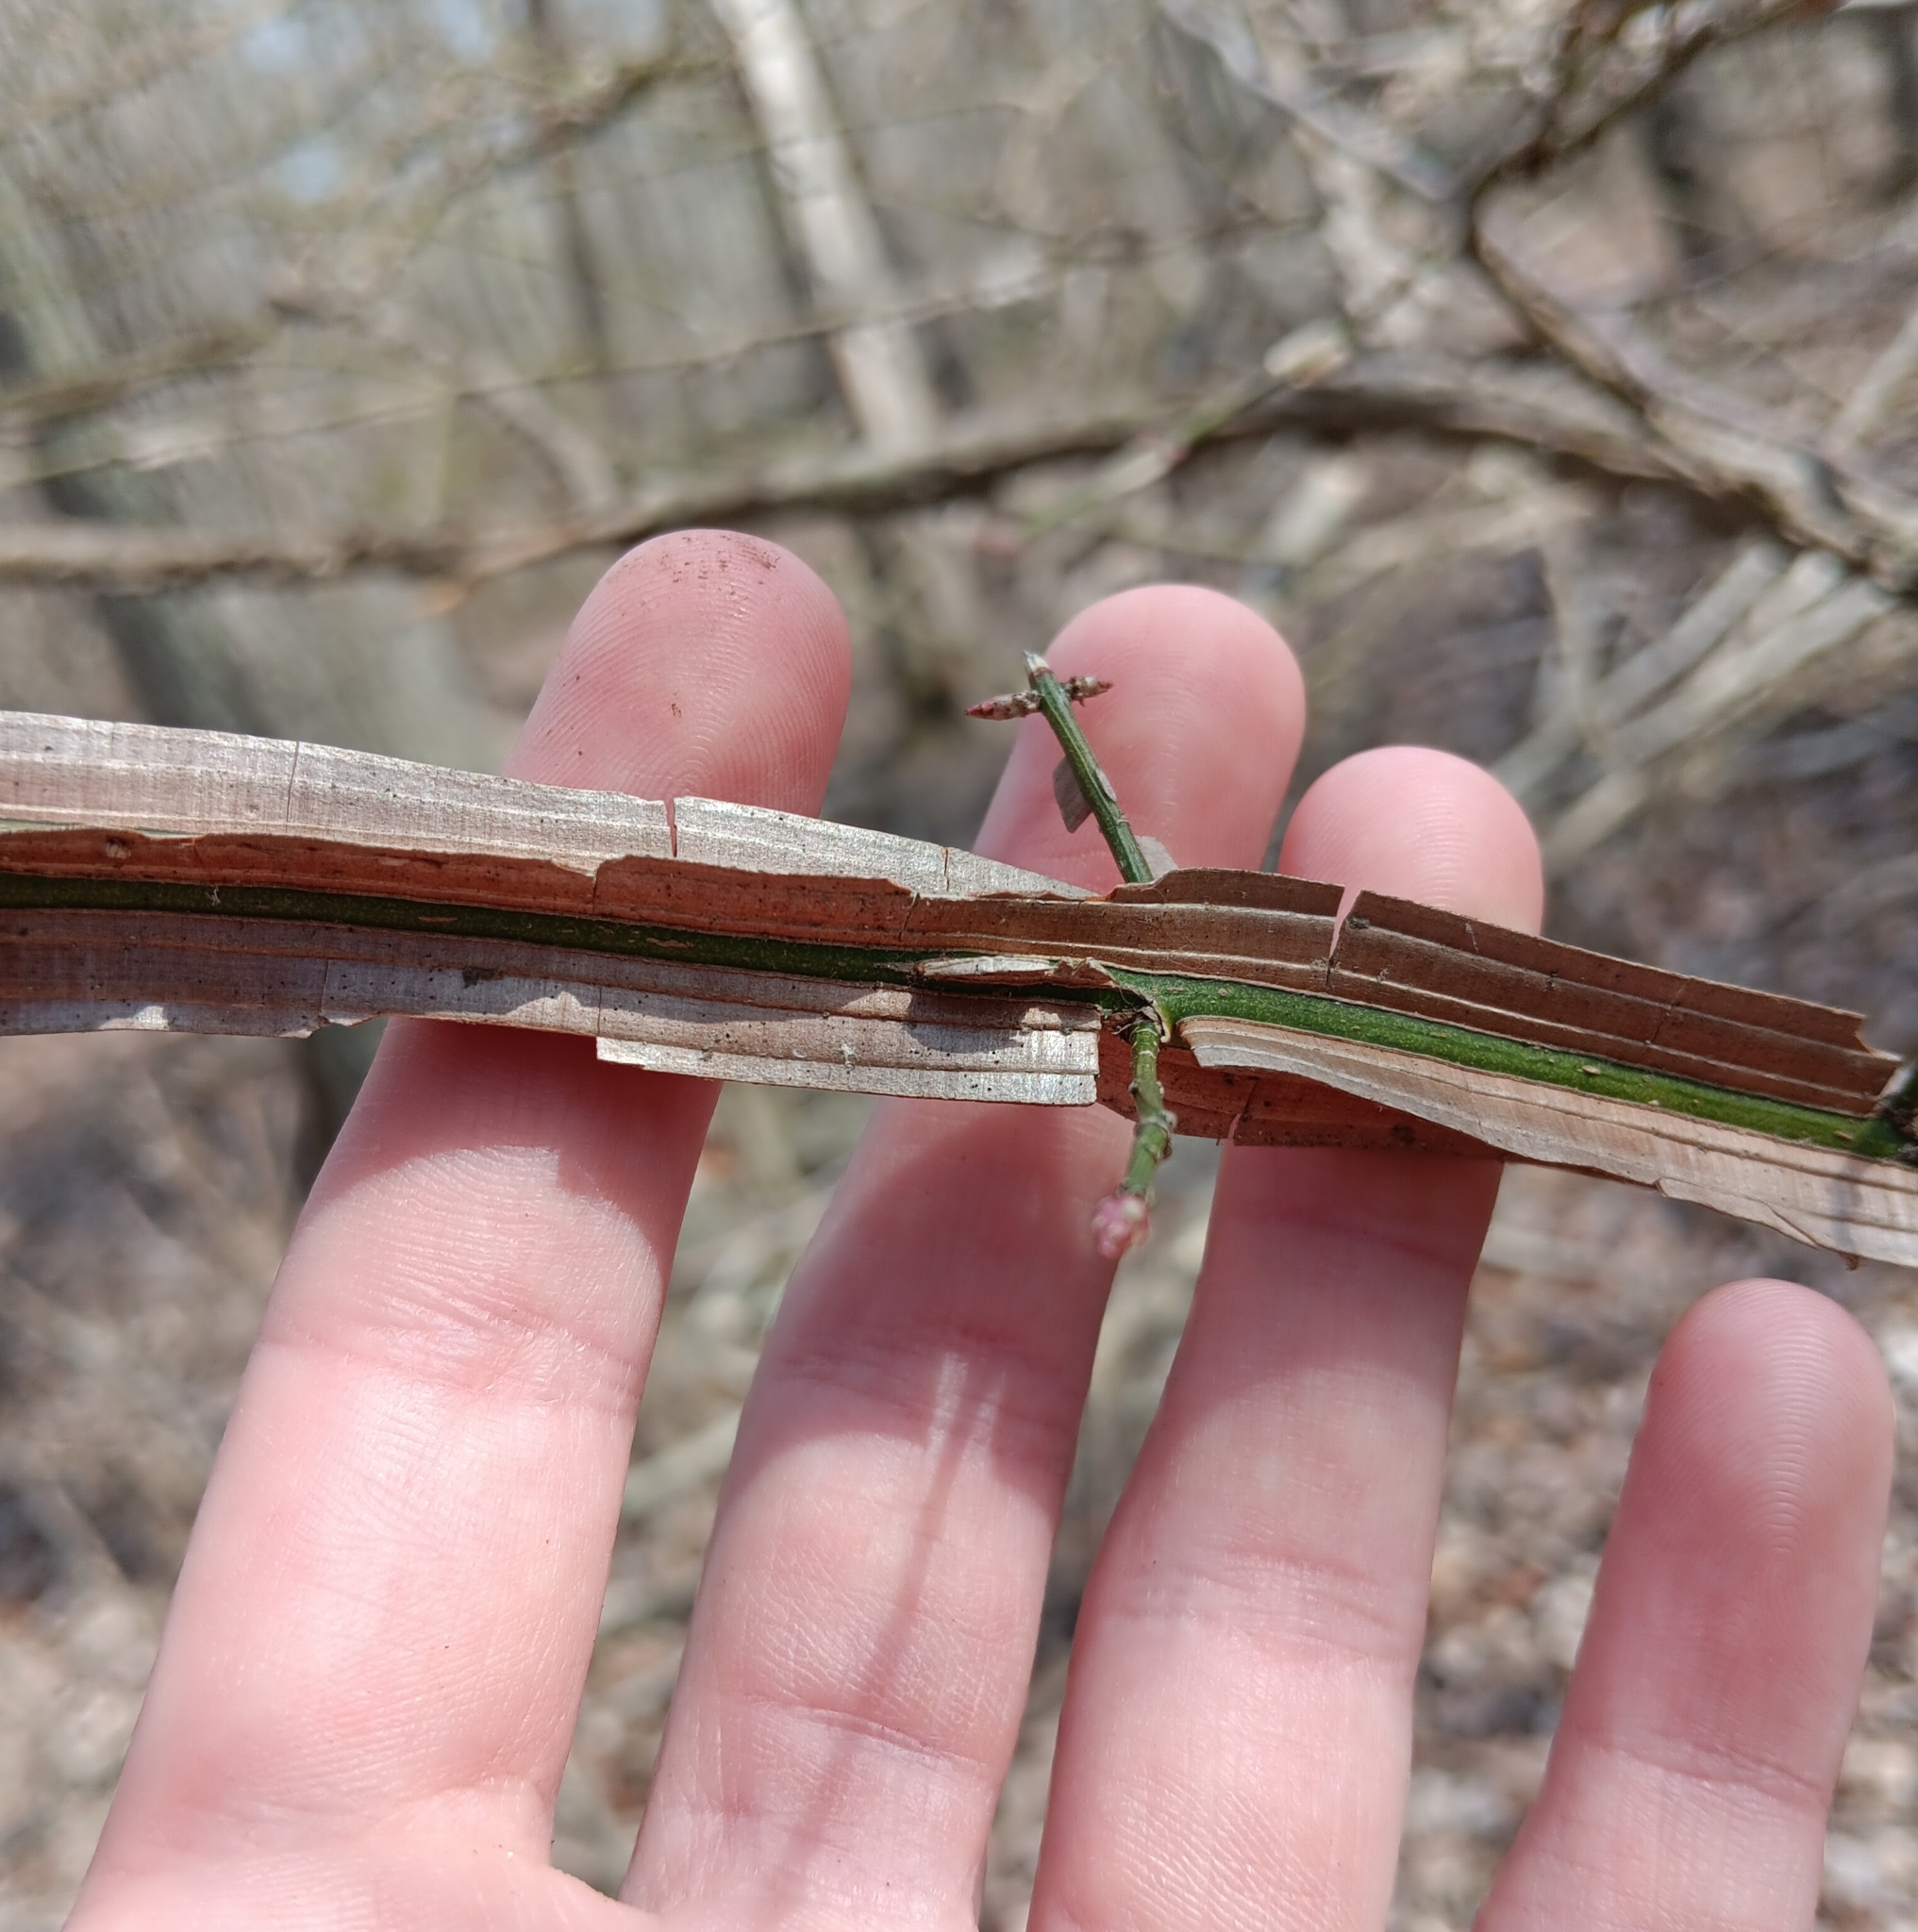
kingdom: Plantae
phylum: Tracheophyta
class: Magnoliopsida
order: Celastrales
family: Celastraceae
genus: Euonymus
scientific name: Euonymus alatus
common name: Winged euonymus
